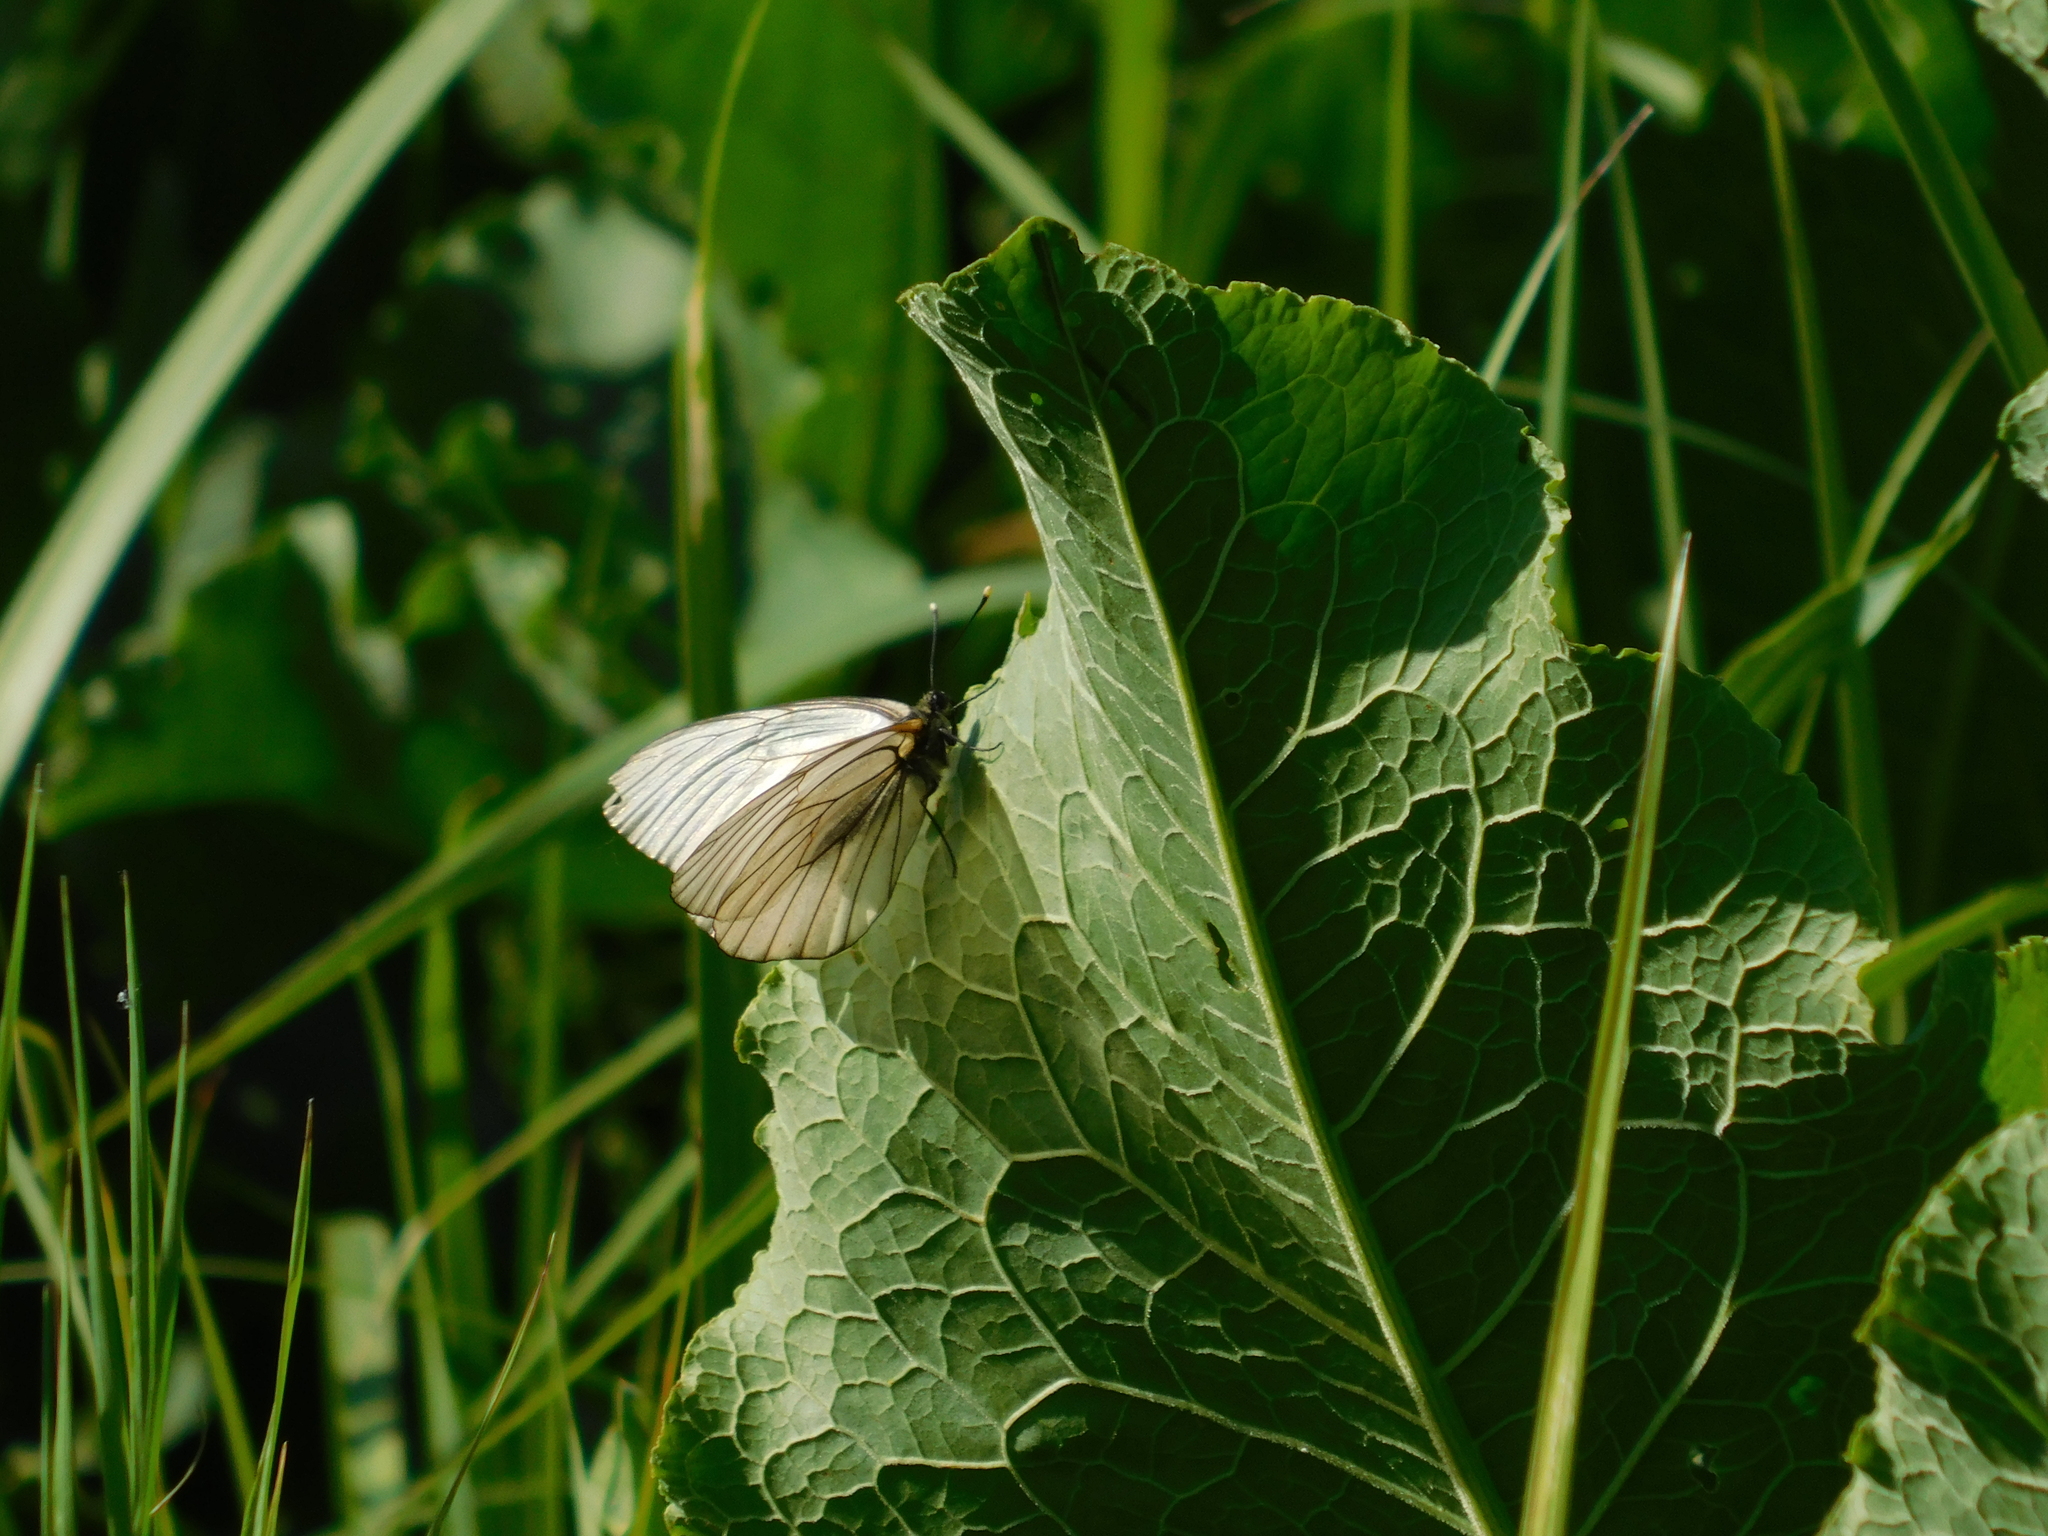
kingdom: Animalia
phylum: Arthropoda
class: Insecta
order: Lepidoptera
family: Pieridae
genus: Aporia
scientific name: Aporia crataegi
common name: Black-veined white
